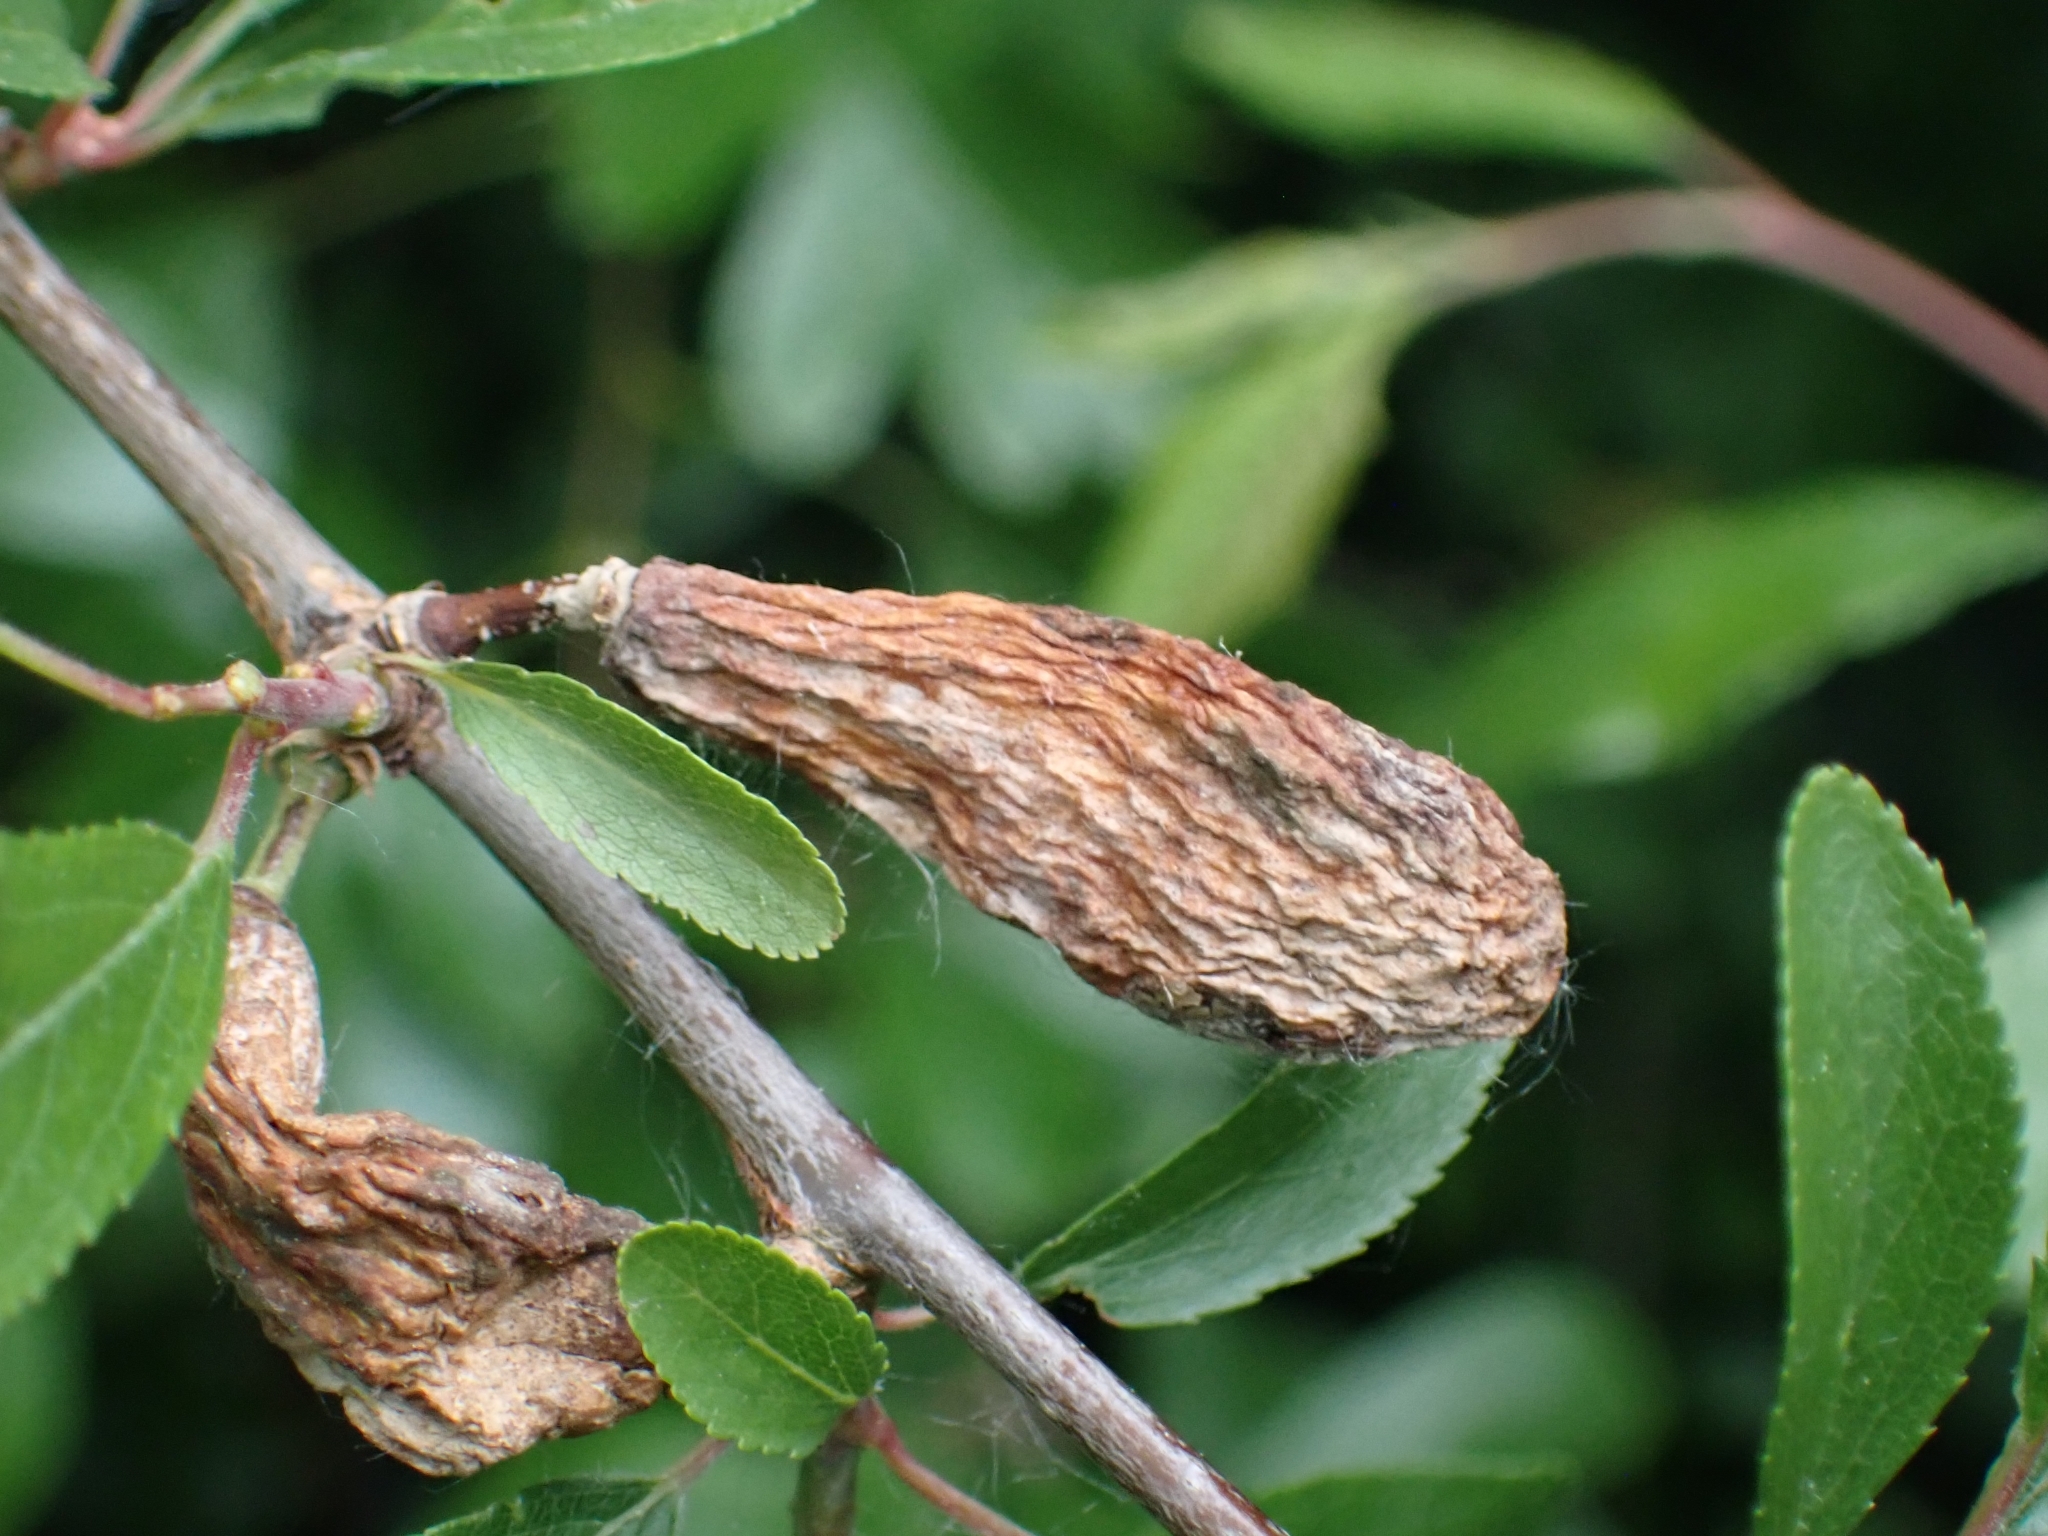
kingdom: Fungi
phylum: Ascomycota
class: Taphrinomycetes
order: Taphrinales
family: Taphrinaceae
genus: Taphrina
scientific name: Taphrina pruni
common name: Pocket plum
